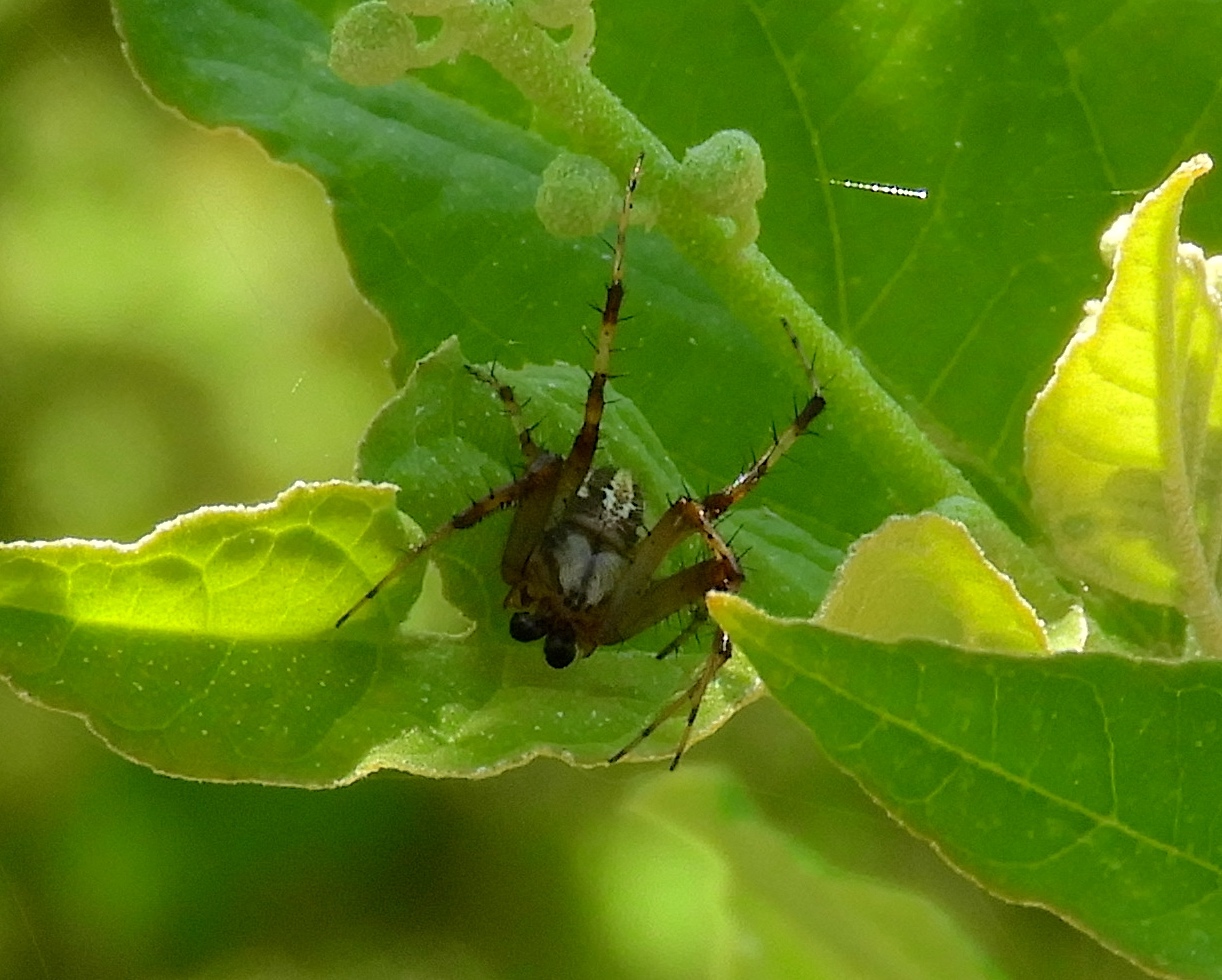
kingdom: Animalia
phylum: Arthropoda
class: Arachnida
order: Araneae
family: Araneidae
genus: Neoscona
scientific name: Neoscona
